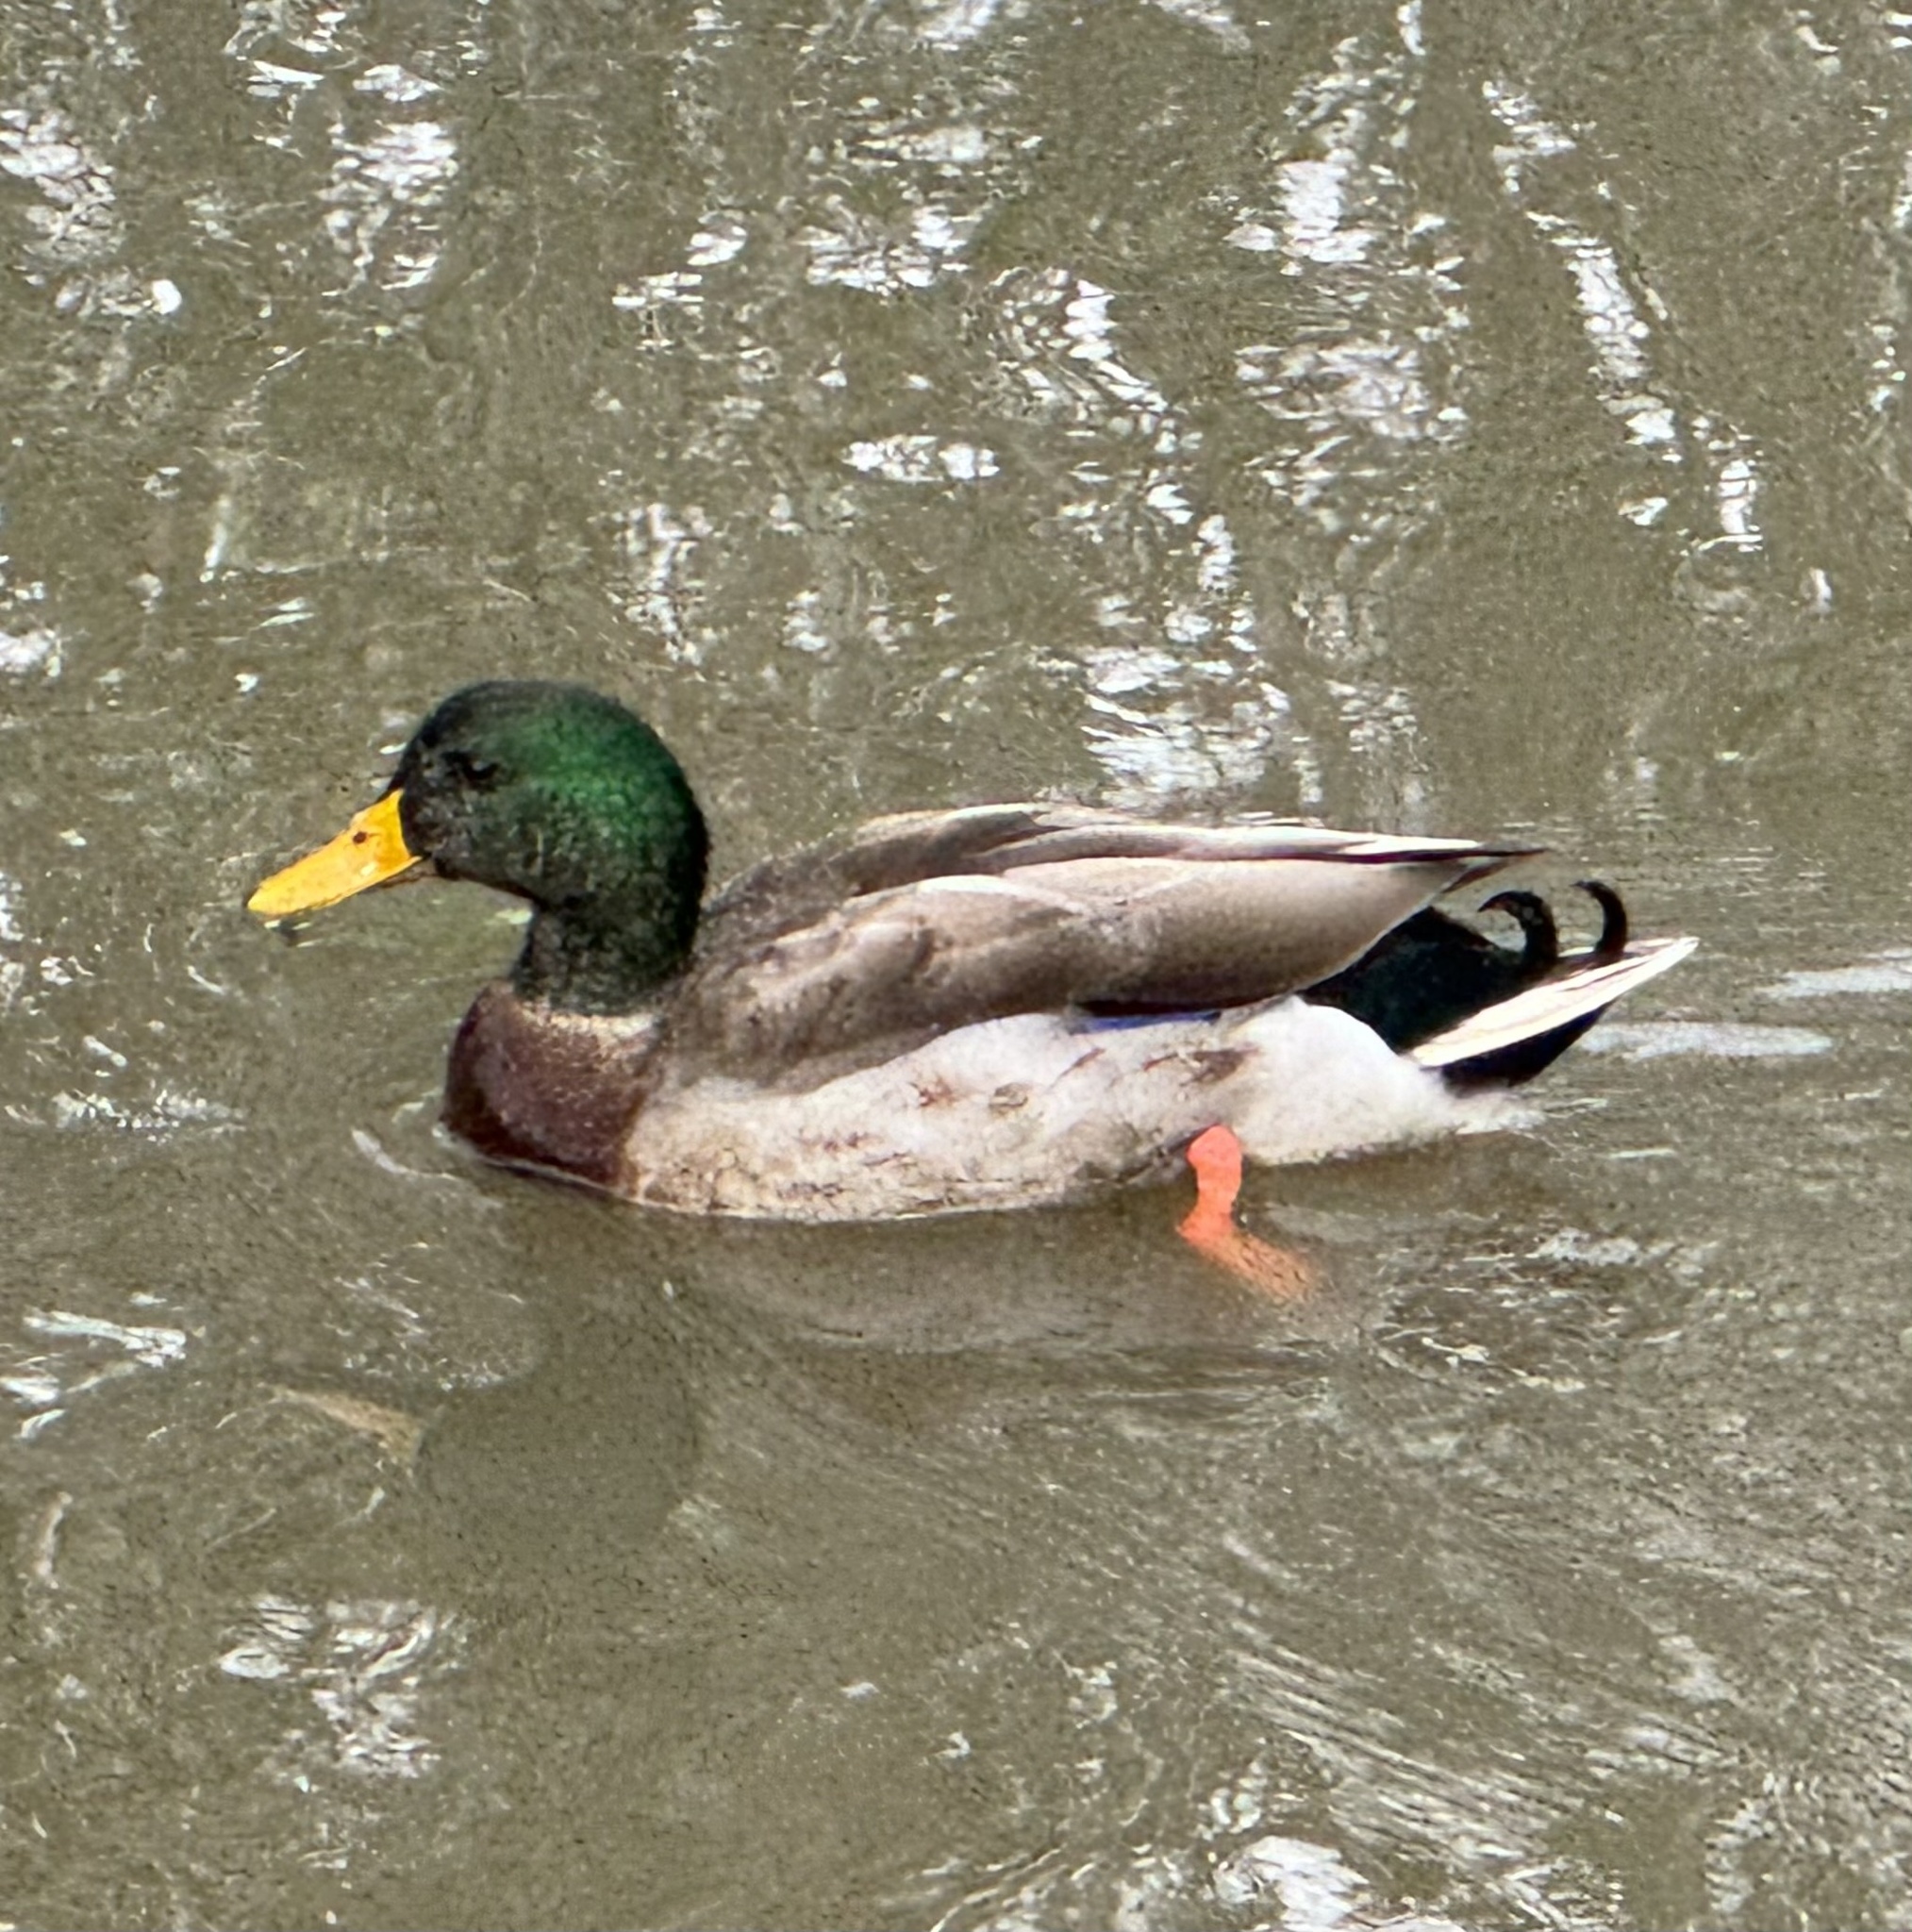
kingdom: Animalia
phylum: Chordata
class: Aves
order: Anseriformes
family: Anatidae
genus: Anas
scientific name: Anas platyrhynchos
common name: Mallard
